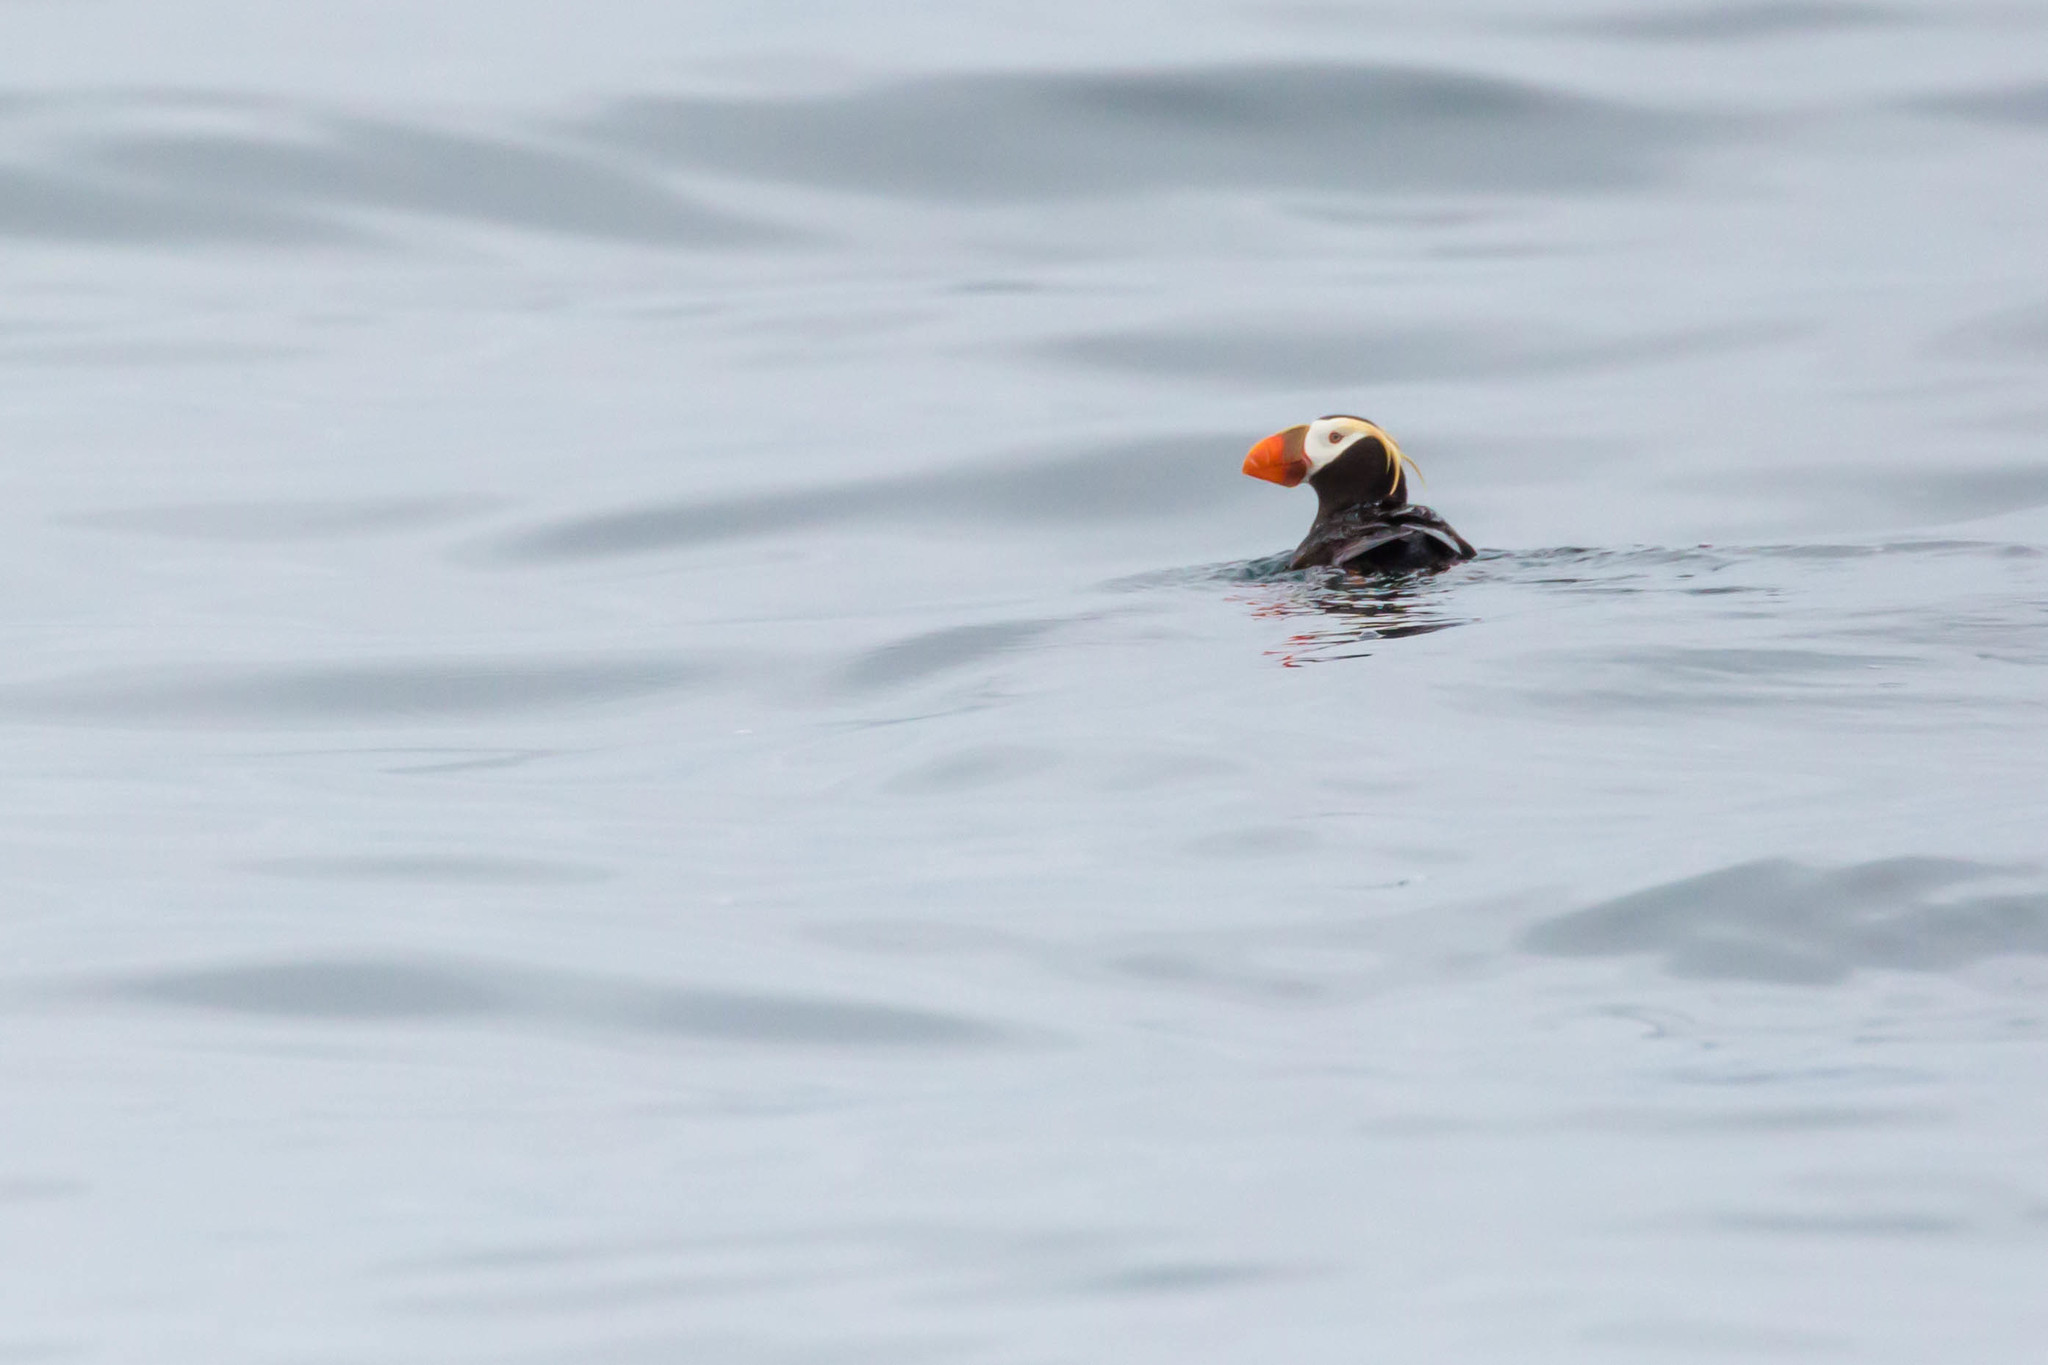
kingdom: Animalia
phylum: Chordata
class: Aves
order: Charadriiformes
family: Alcidae
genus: Fratercula
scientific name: Fratercula cirrhata
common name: Tufted puffin
